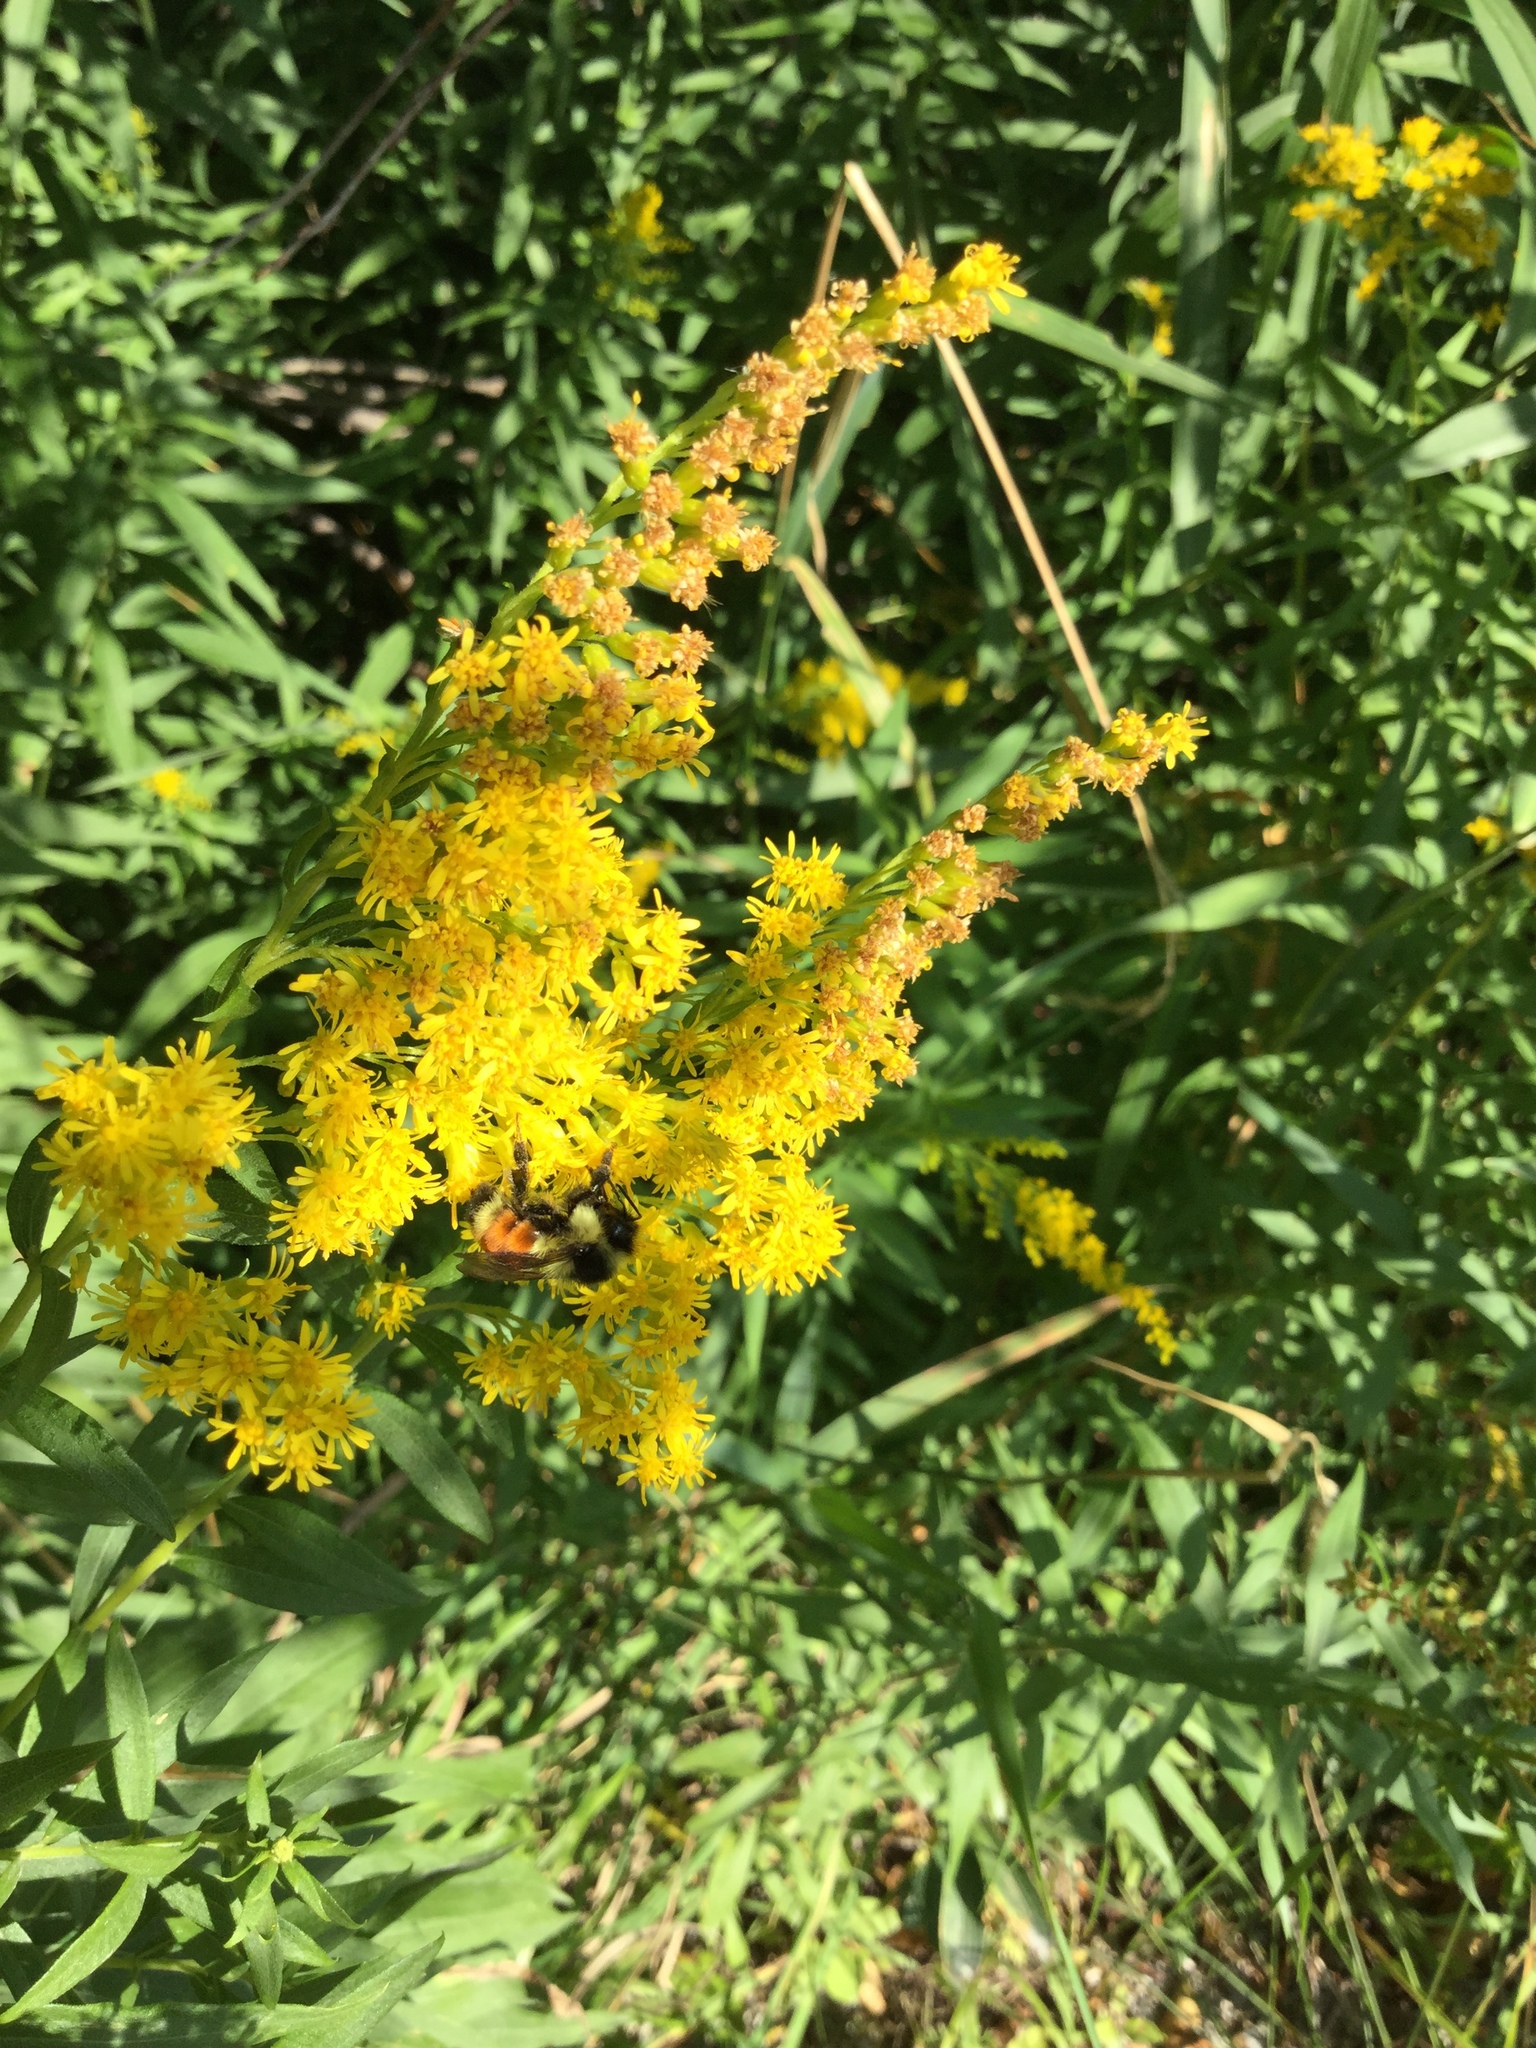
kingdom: Animalia
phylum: Arthropoda
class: Insecta
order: Hymenoptera
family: Apidae
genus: Bombus
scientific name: Bombus ternarius
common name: Tri-colored bumble bee
